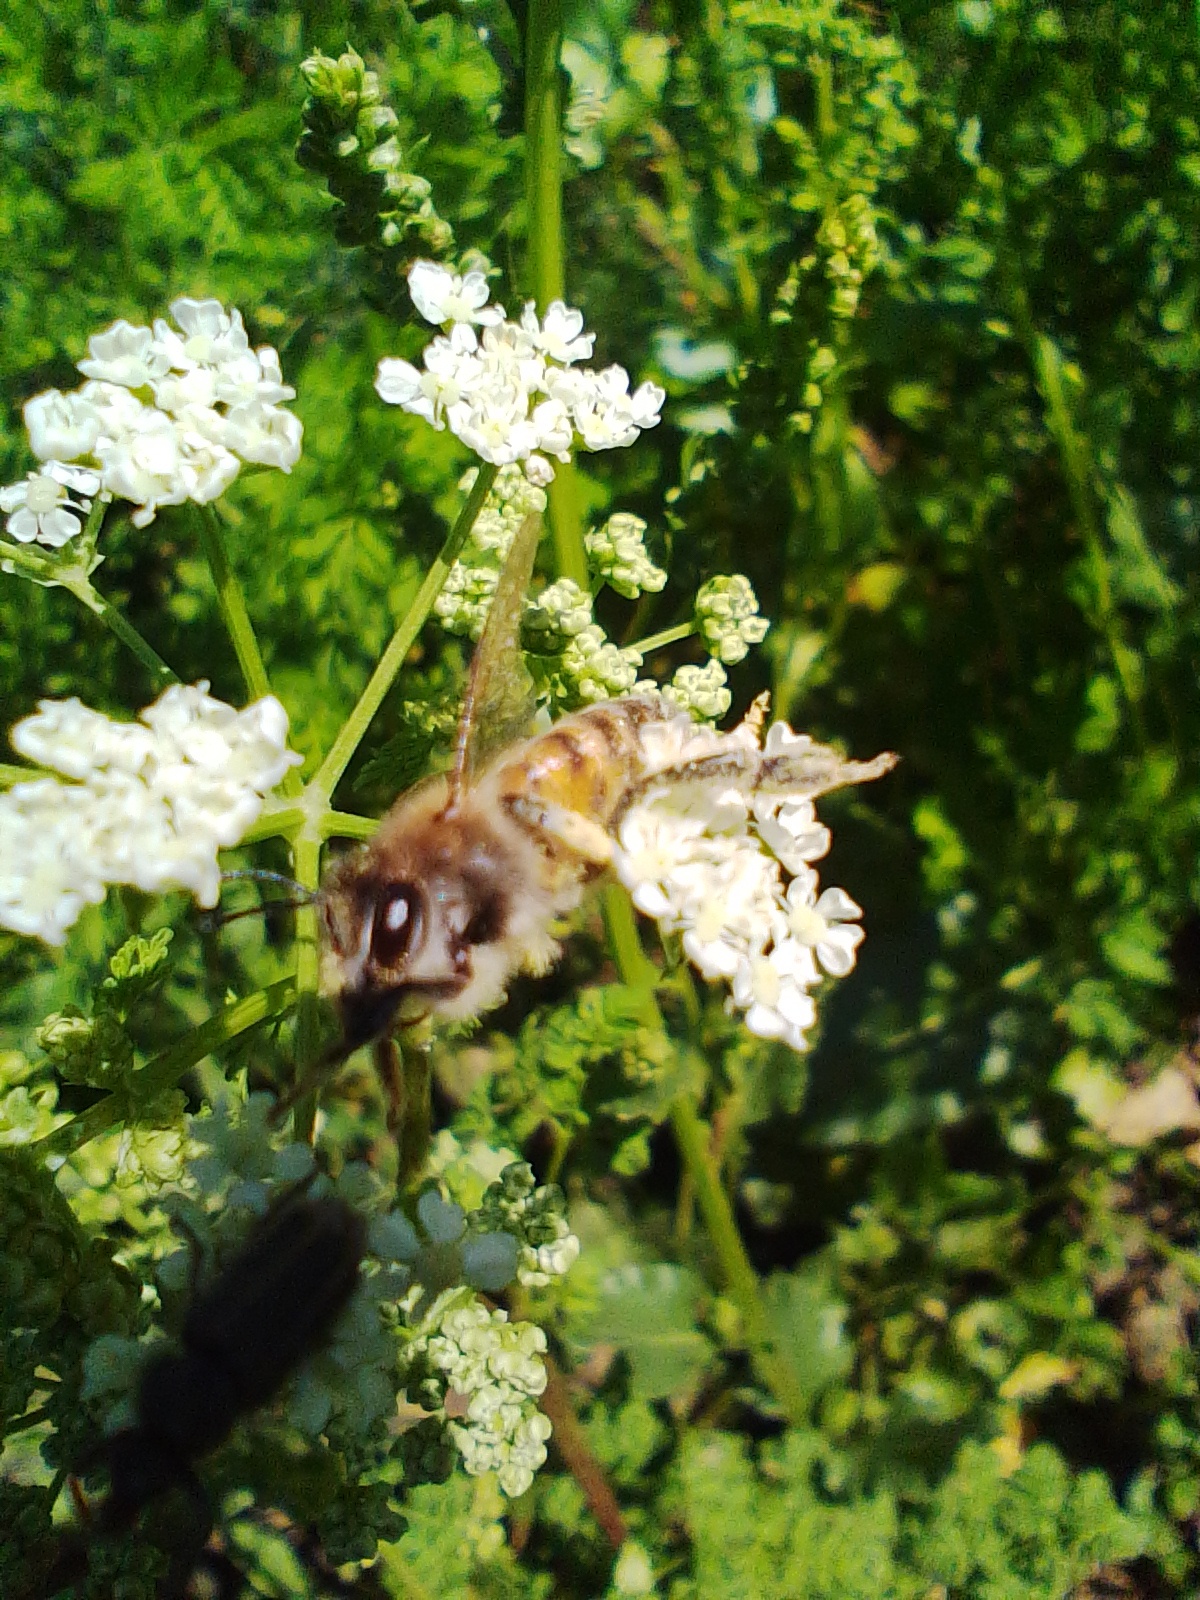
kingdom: Animalia
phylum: Arthropoda
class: Insecta
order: Hymenoptera
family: Apidae
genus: Apis
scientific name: Apis mellifera
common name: Honey bee
